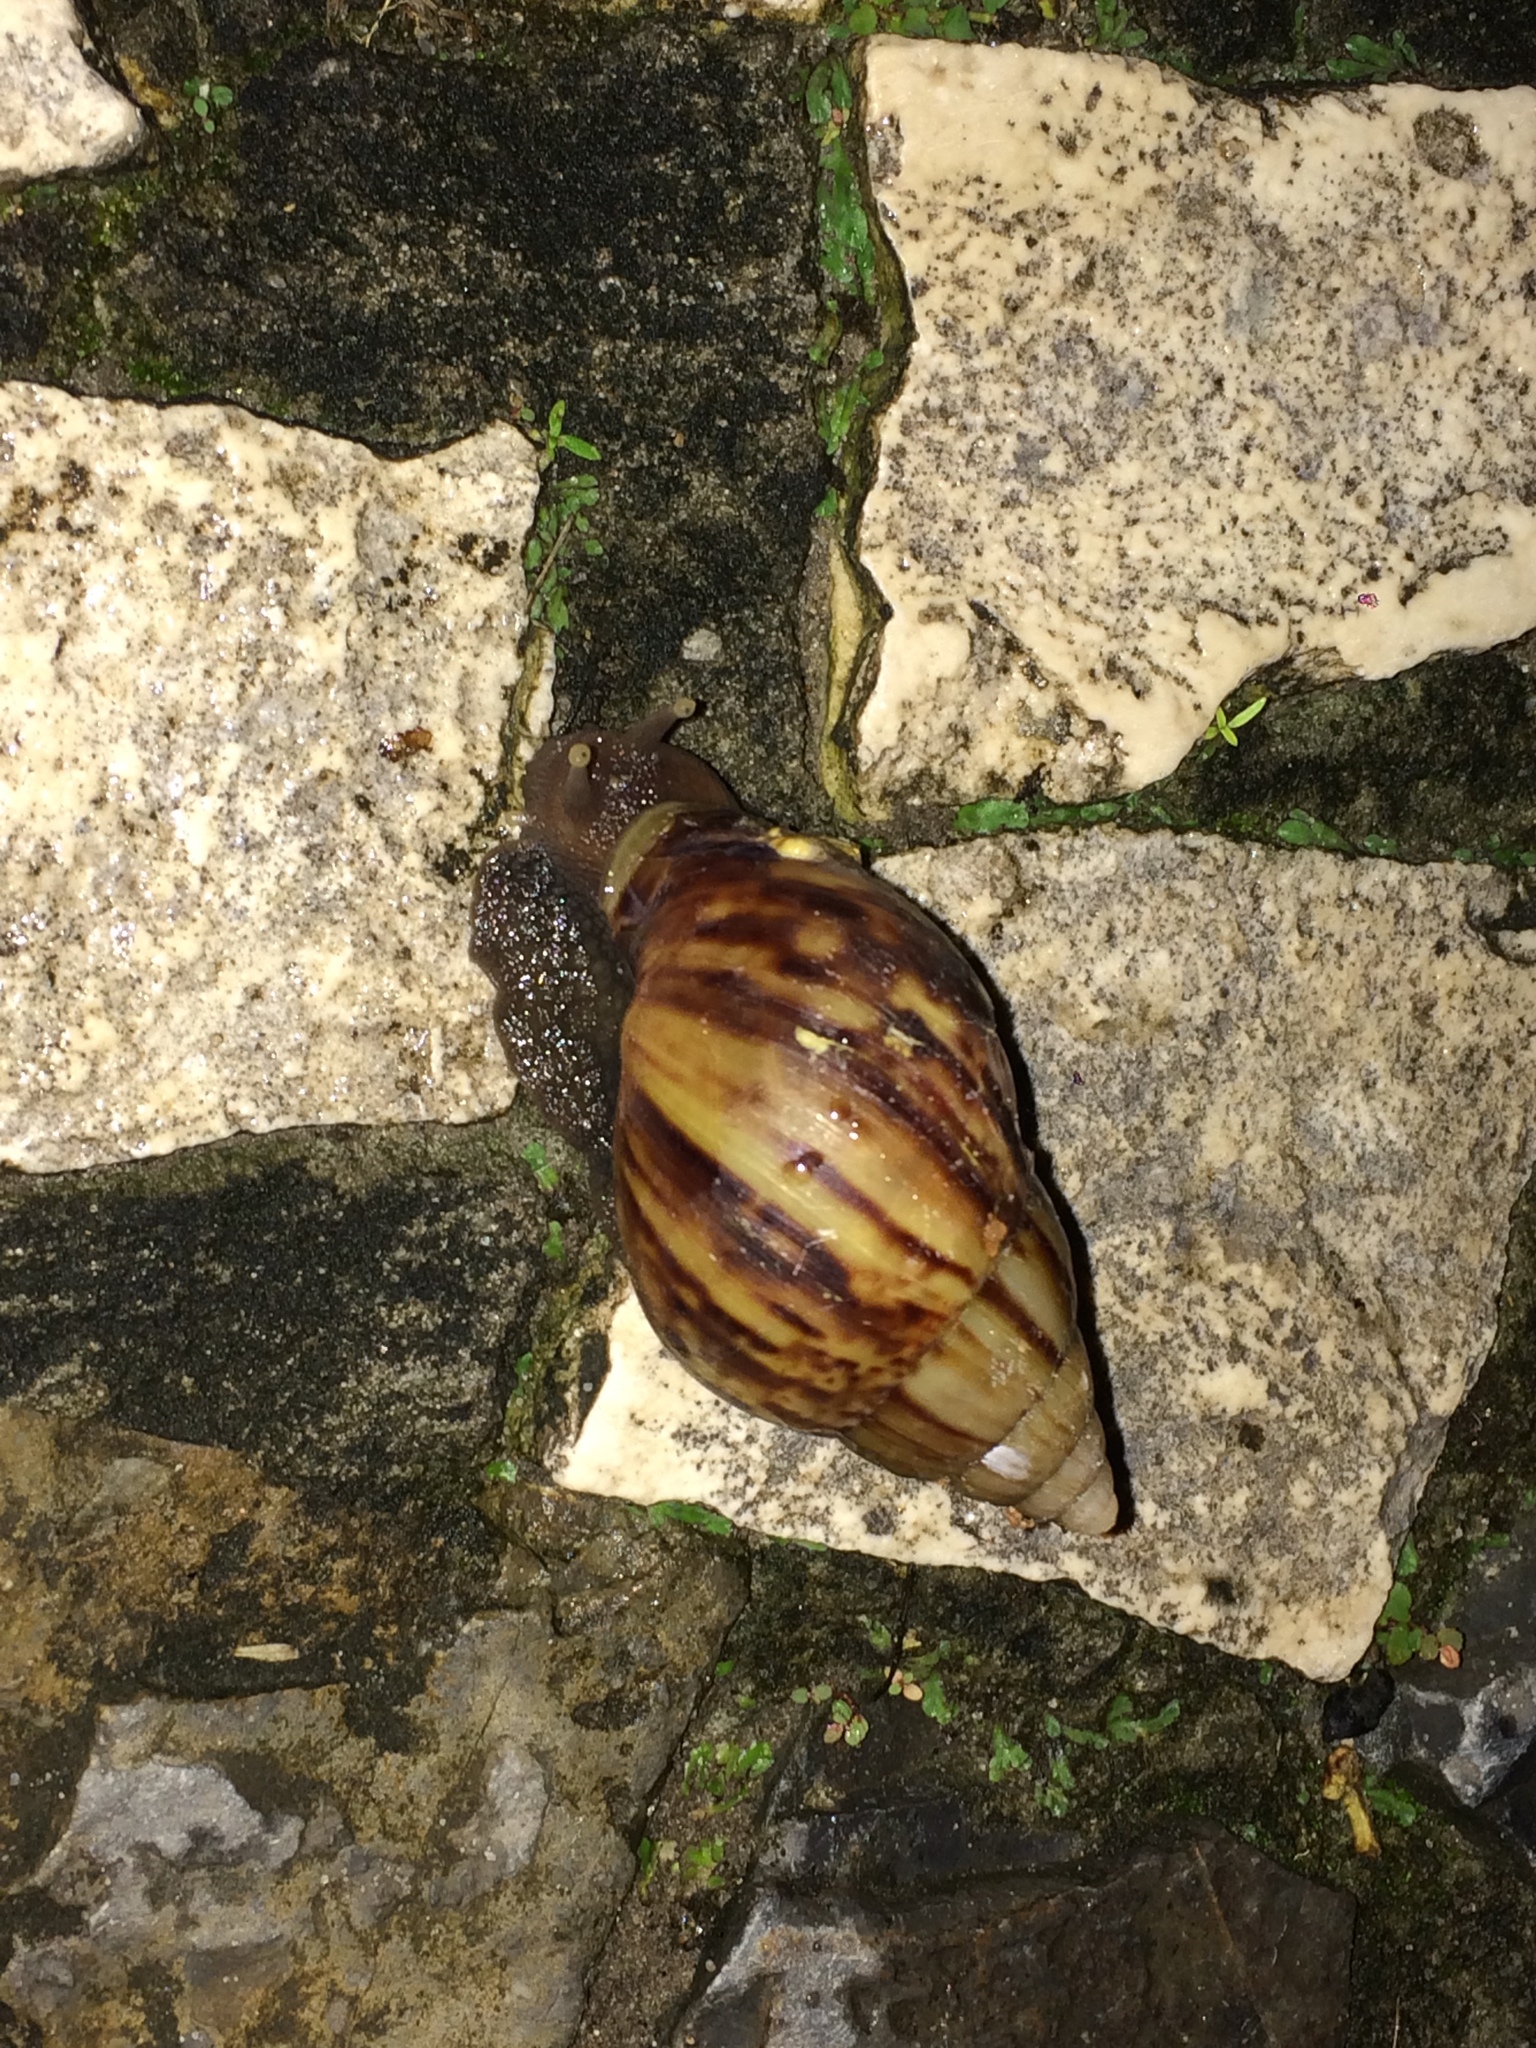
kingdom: Animalia
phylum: Mollusca
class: Gastropoda
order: Stylommatophora
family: Achatinidae
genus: Lissachatina
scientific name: Lissachatina fulica
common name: Giant african snail
